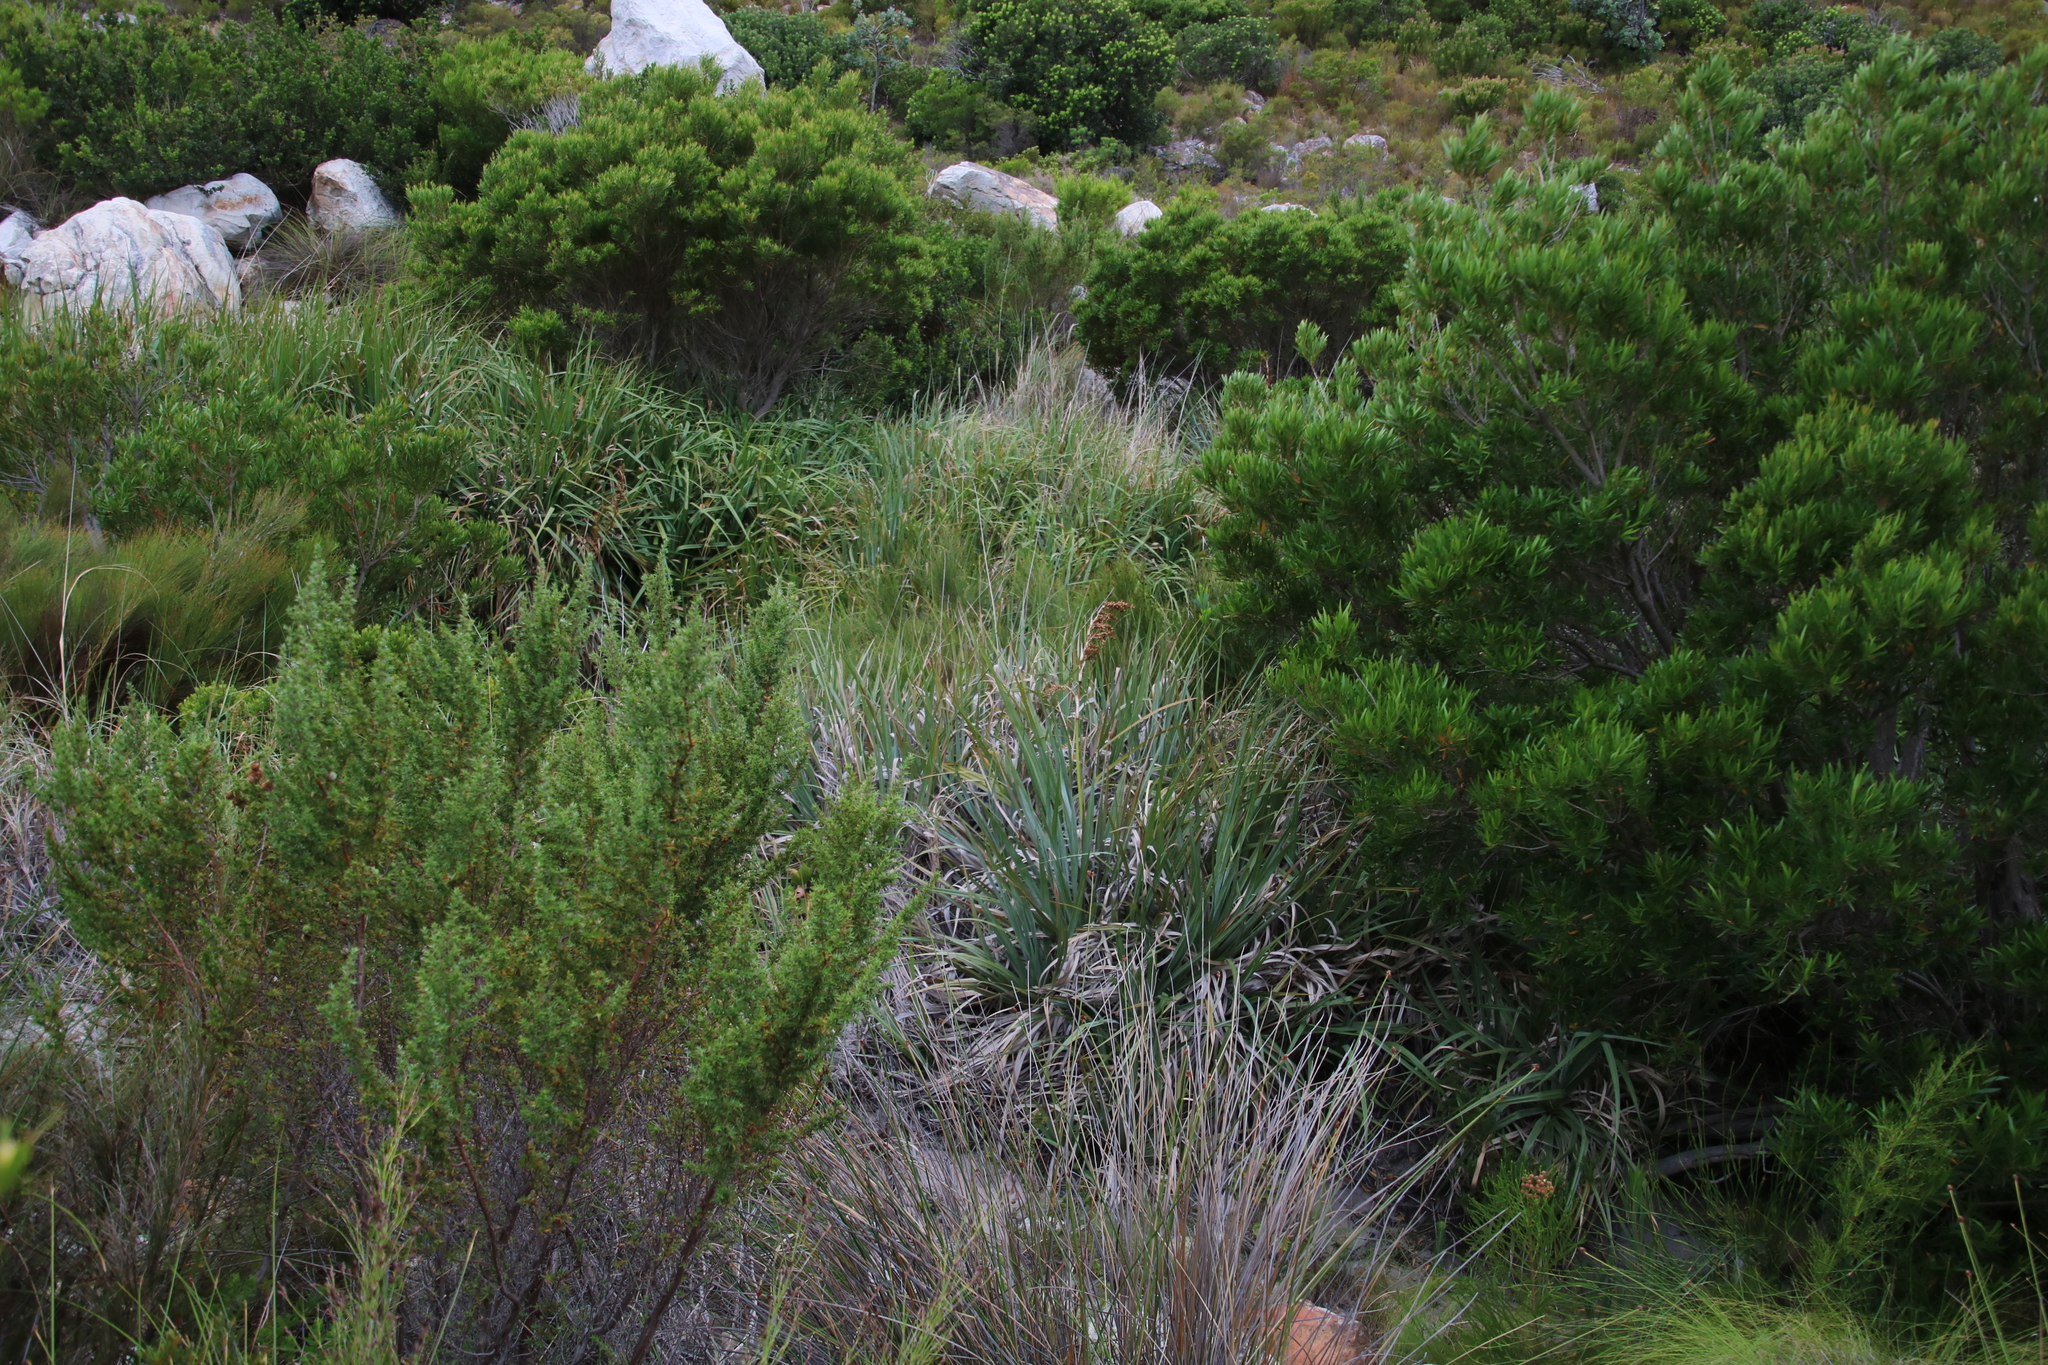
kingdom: Plantae
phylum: Tracheophyta
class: Liliopsida
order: Poales
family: Thurniaceae
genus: Prionium
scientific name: Prionium serratum
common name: Palmiet
